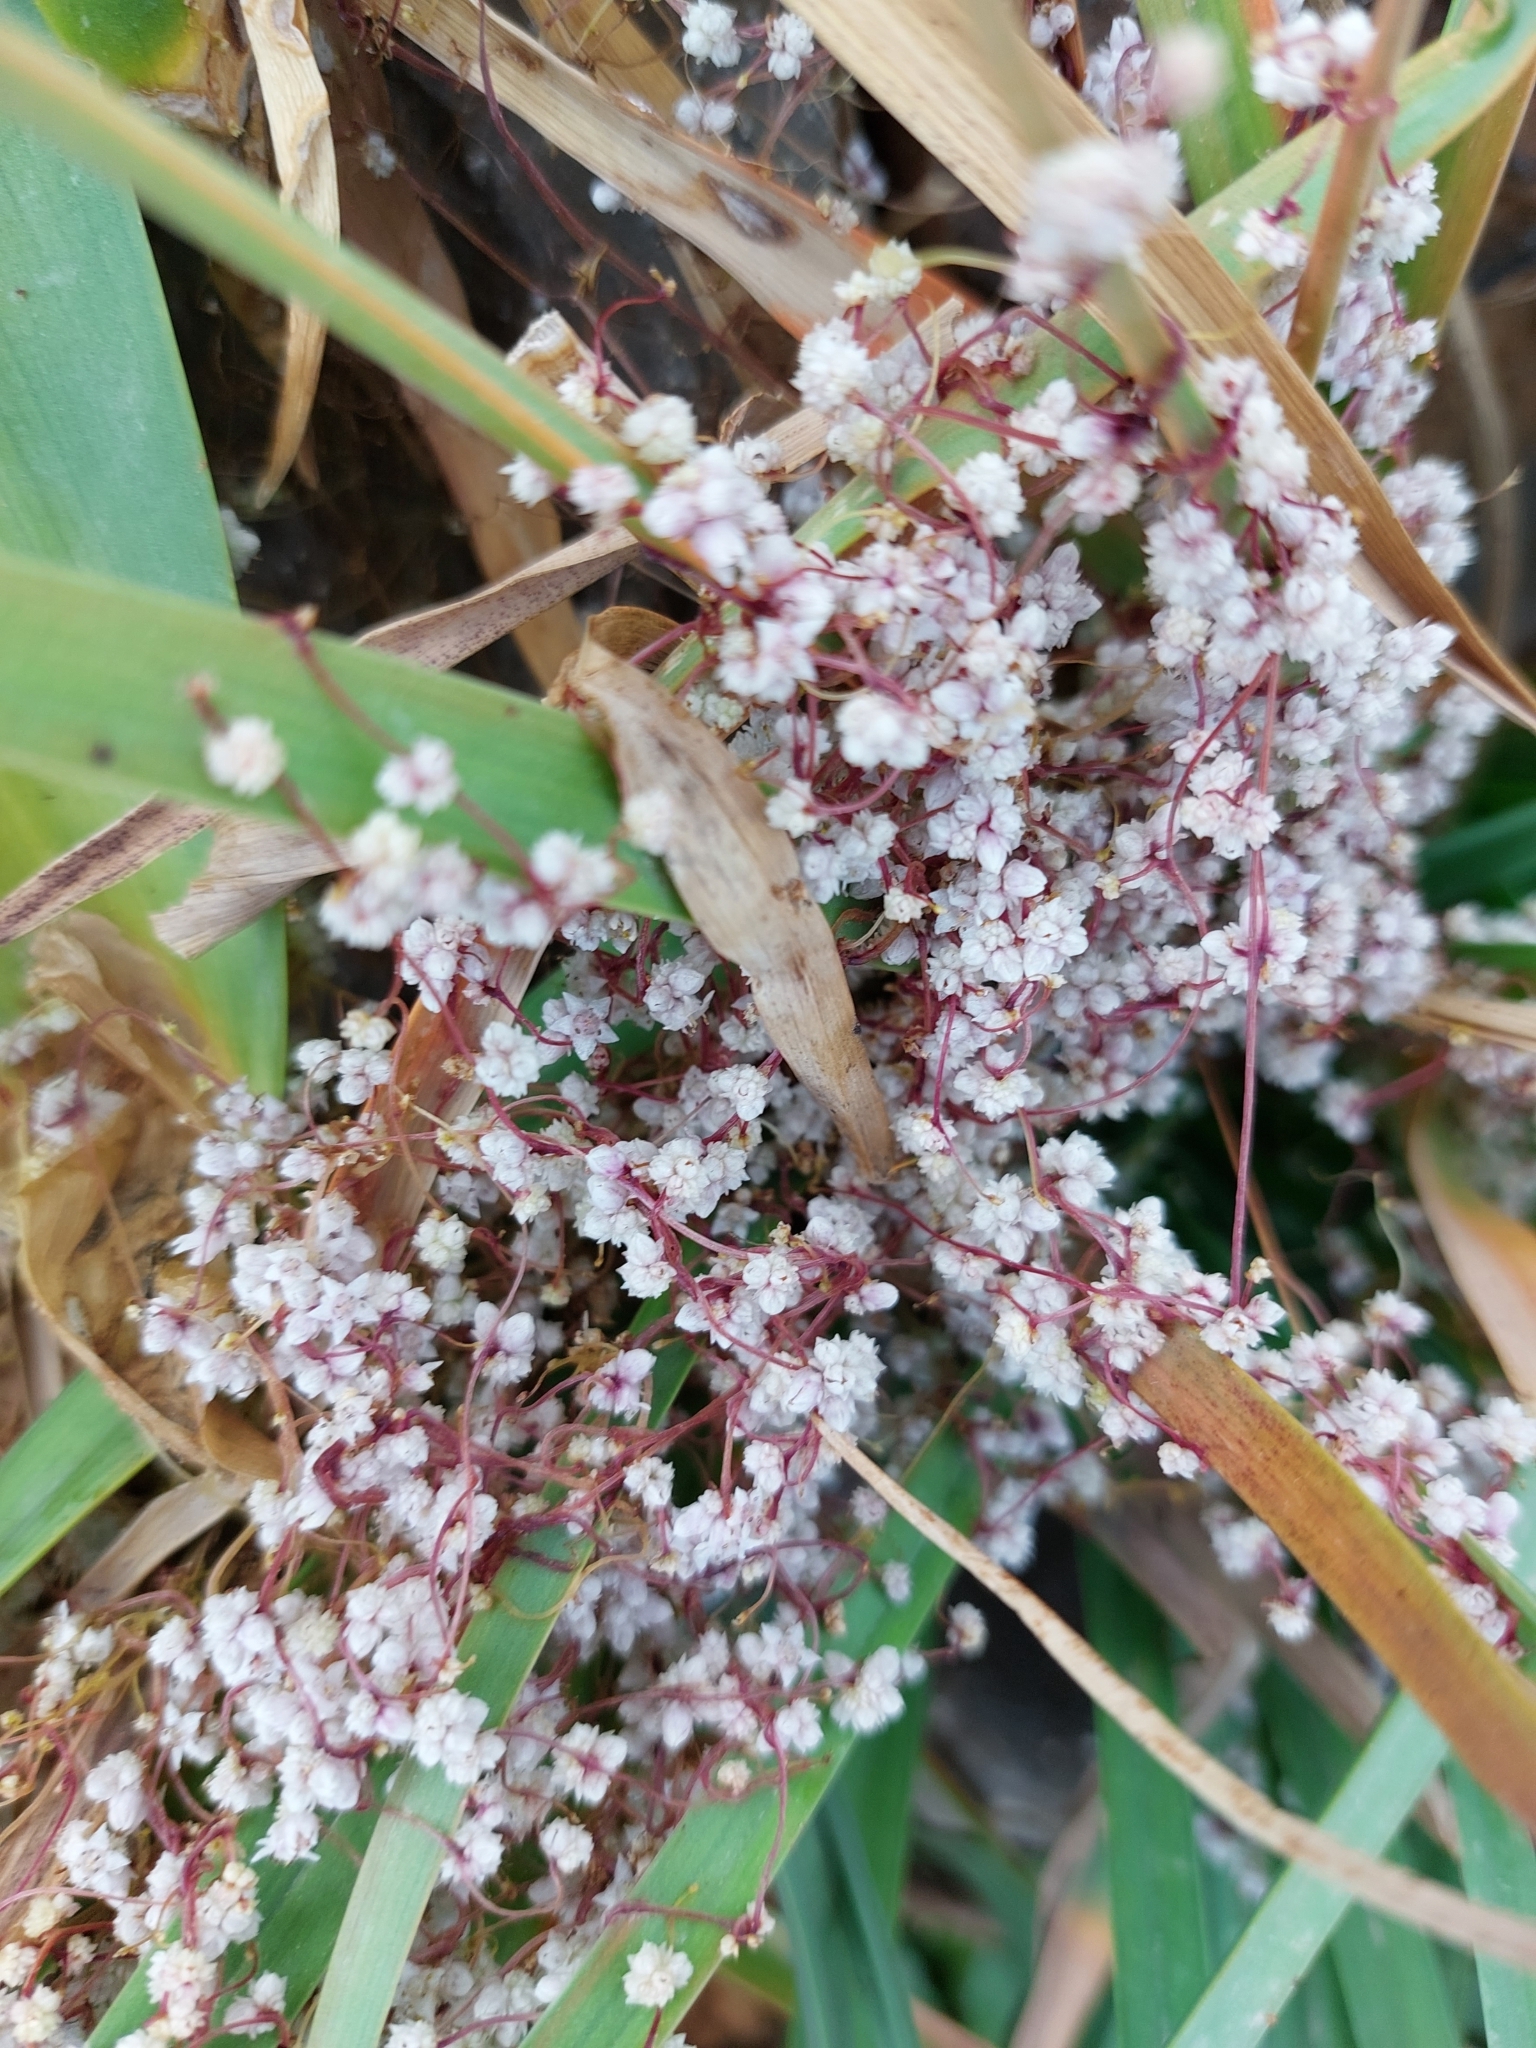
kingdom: Plantae
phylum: Tracheophyta
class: Magnoliopsida
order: Solanales
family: Convolvulaceae
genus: Cuscuta
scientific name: Cuscuta epithymum
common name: Clover dodder
